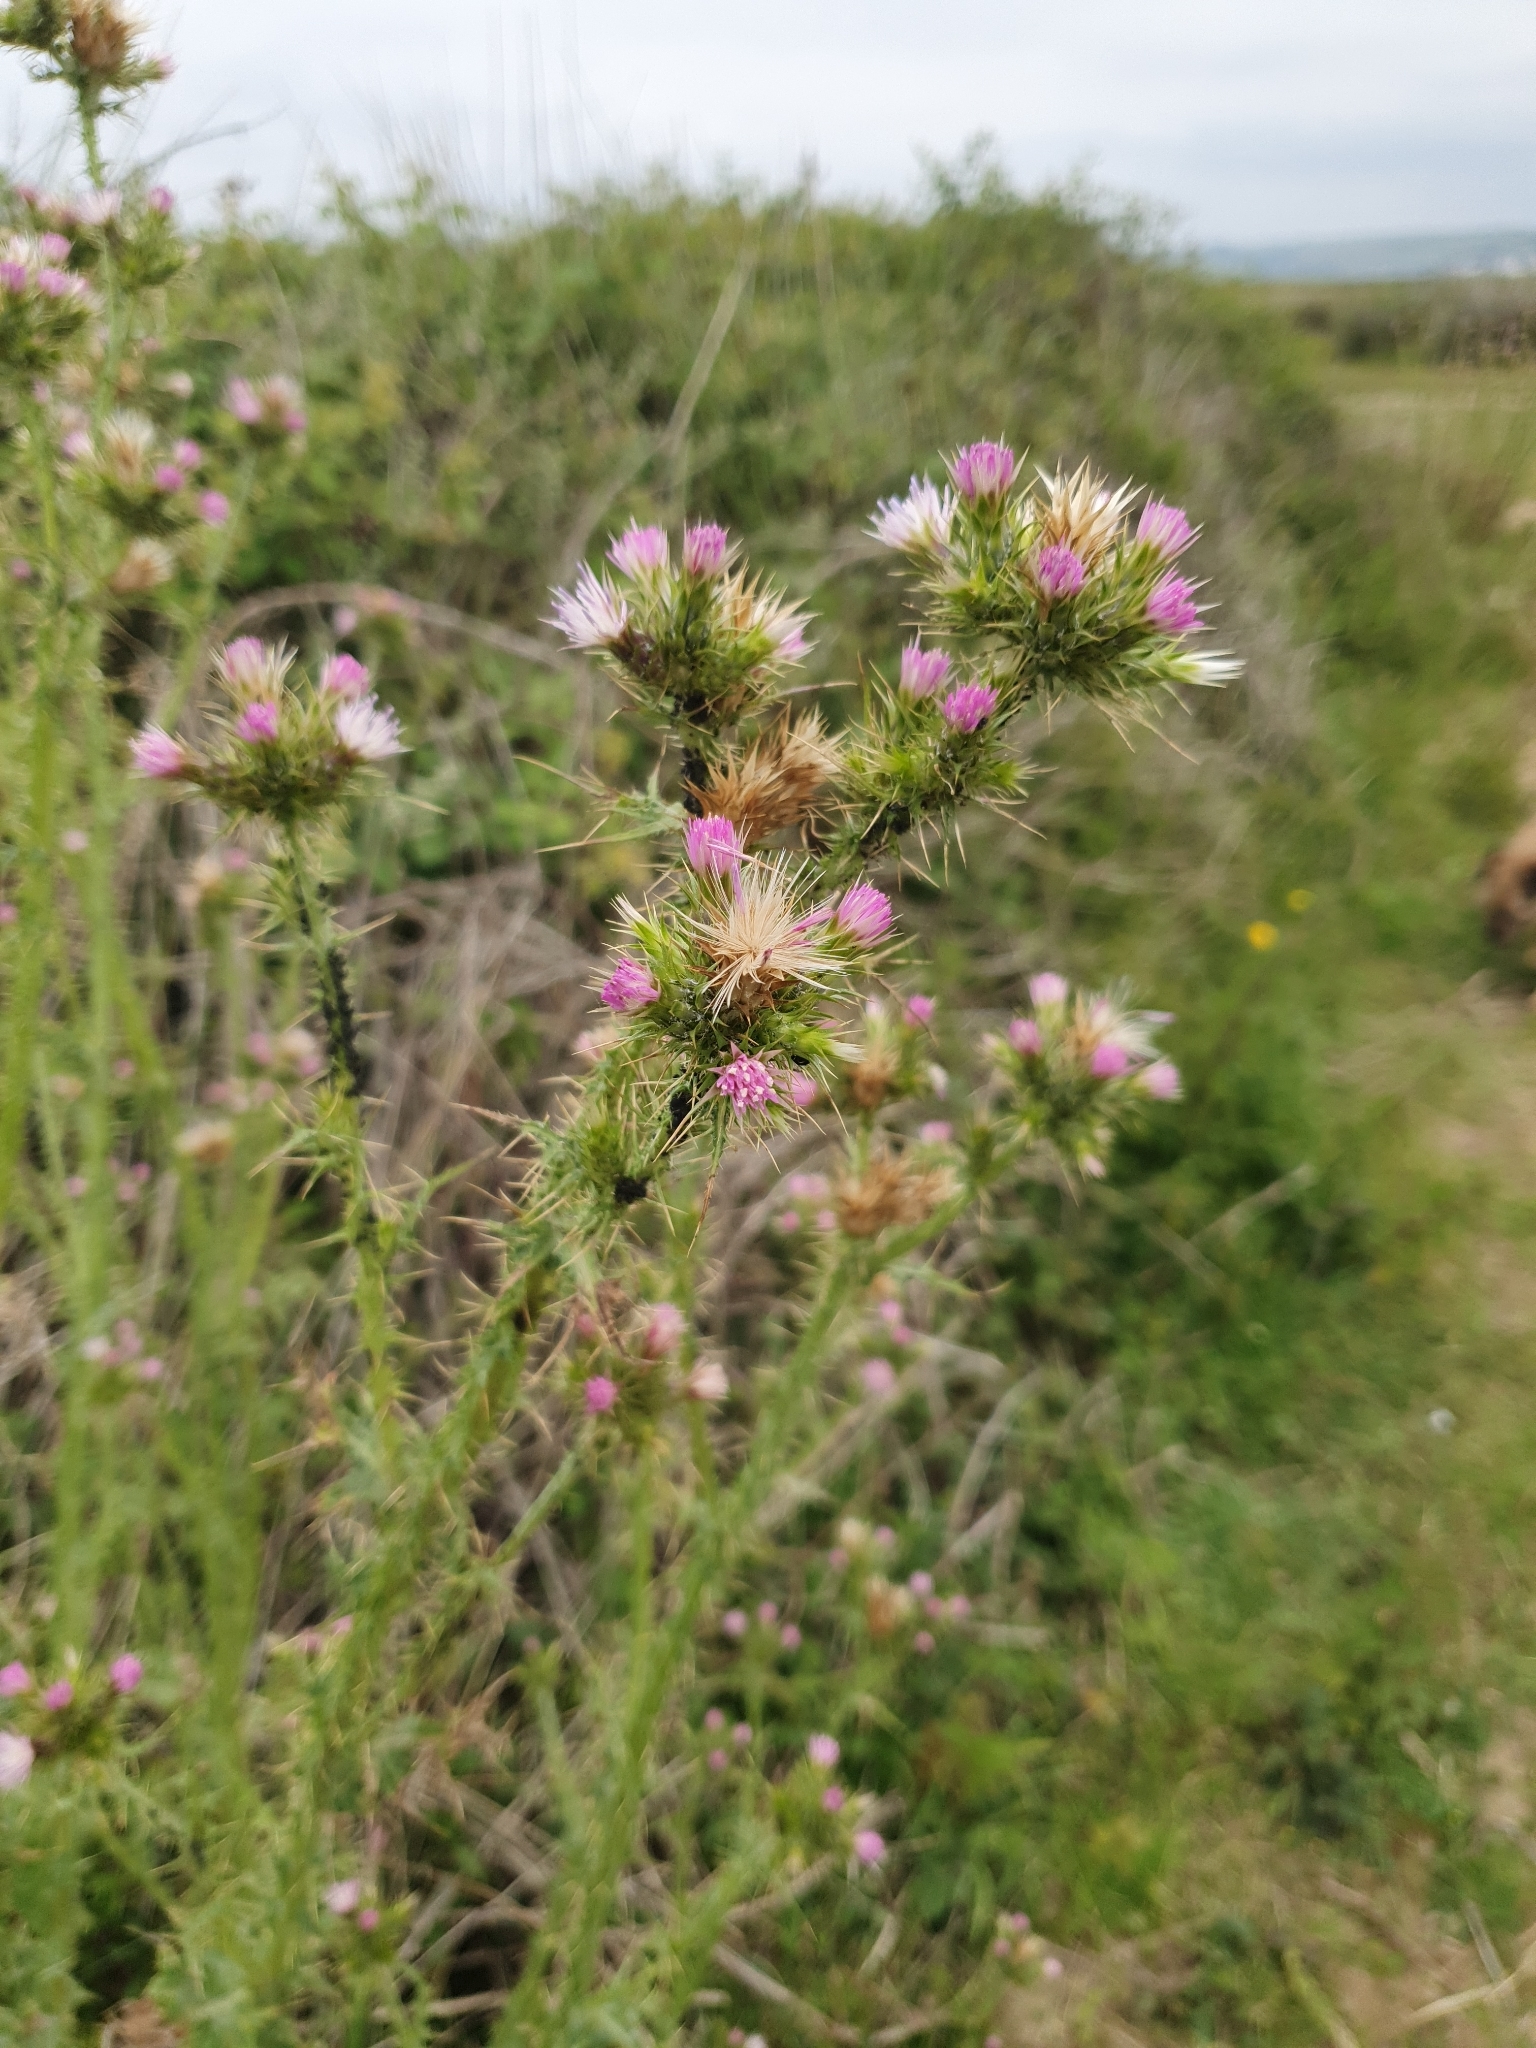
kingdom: Plantae
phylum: Tracheophyta
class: Magnoliopsida
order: Asterales
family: Asteraceae
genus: Carduus
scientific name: Carduus tenuiflorus
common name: Slender thistle
